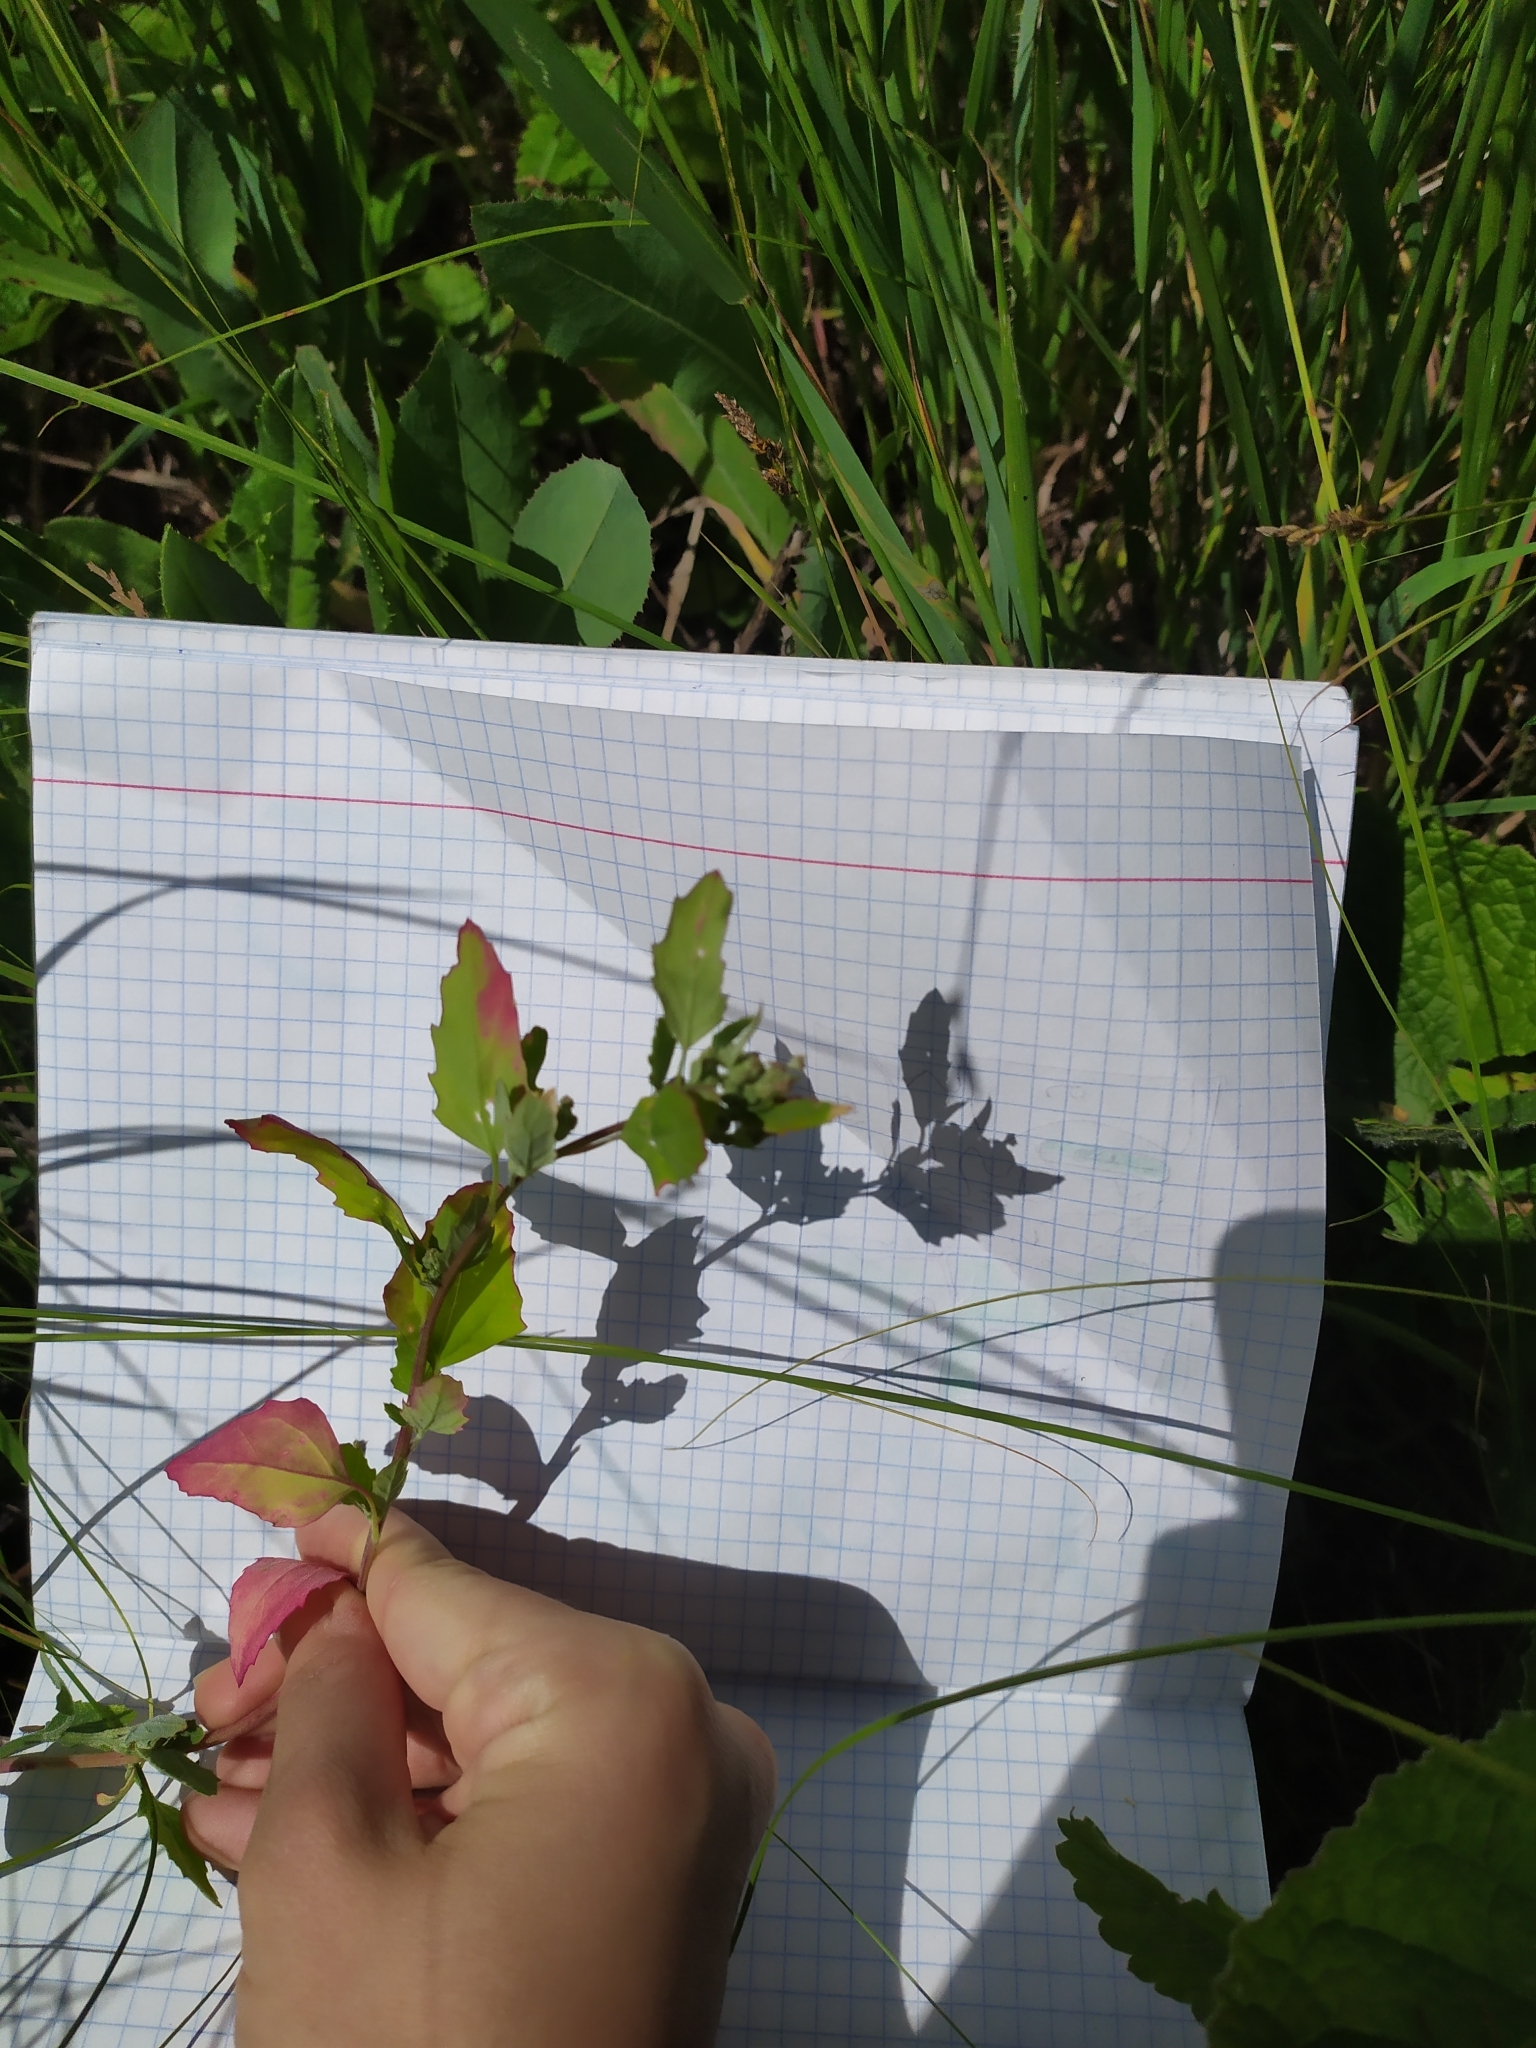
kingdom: Plantae
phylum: Tracheophyta
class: Magnoliopsida
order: Caryophyllales
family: Amaranthaceae
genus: Chenopodium
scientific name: Chenopodium album
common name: Fat-hen
